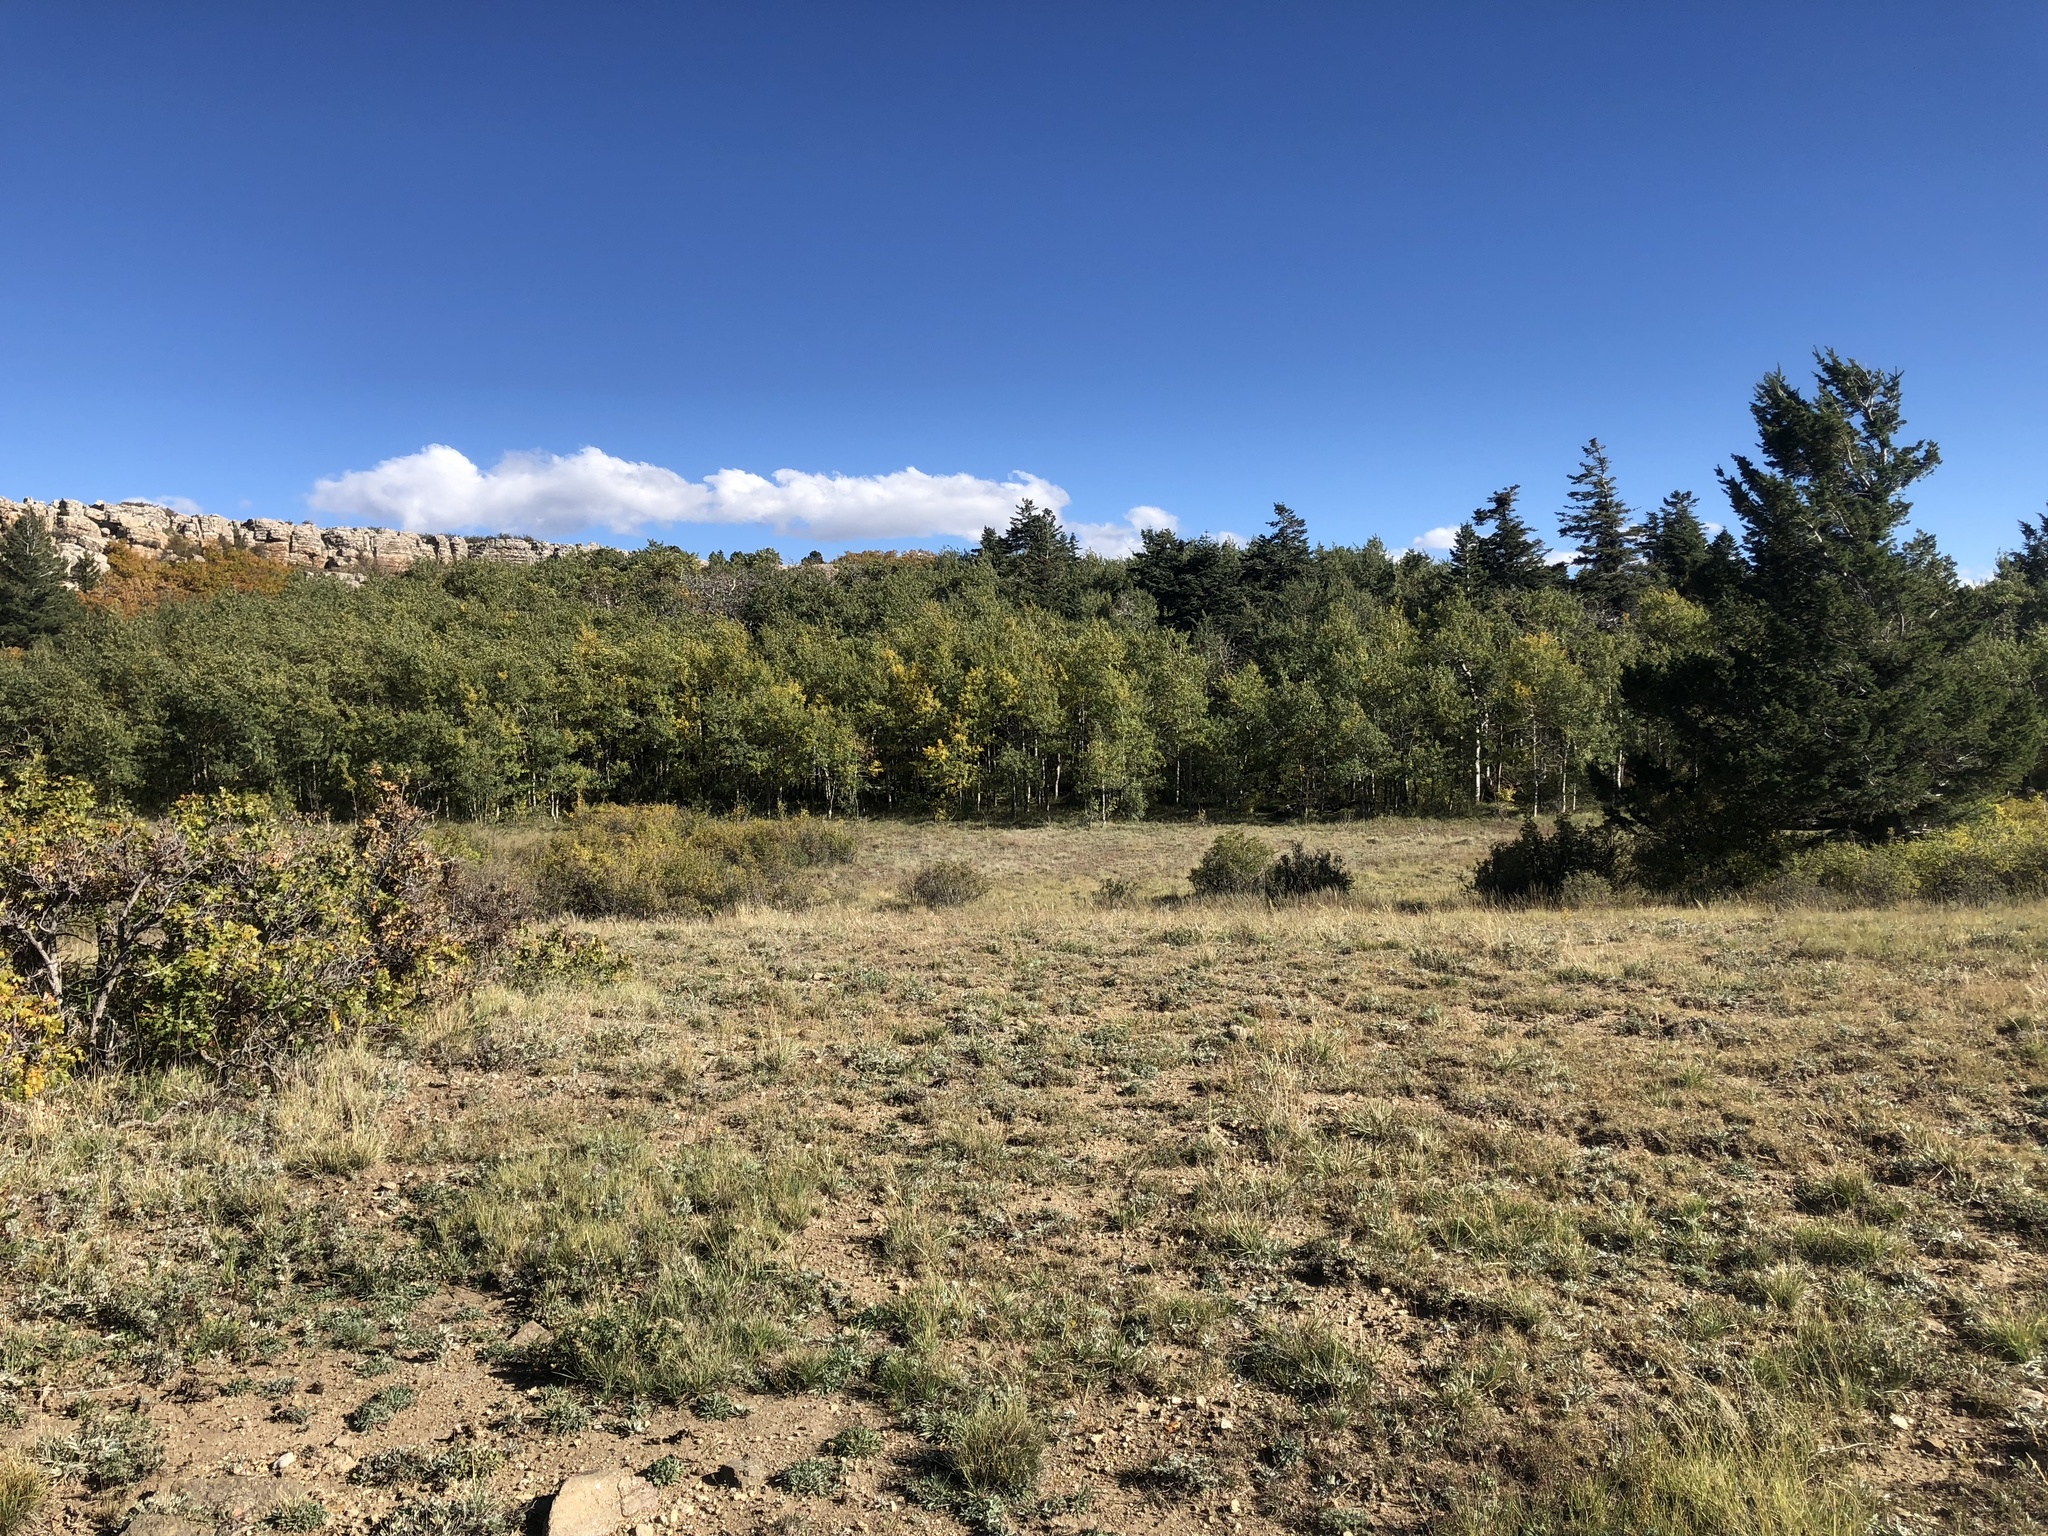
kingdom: Plantae
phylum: Tracheophyta
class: Magnoliopsida
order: Malpighiales
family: Salicaceae
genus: Populus
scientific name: Populus tremuloides
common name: Quaking aspen
